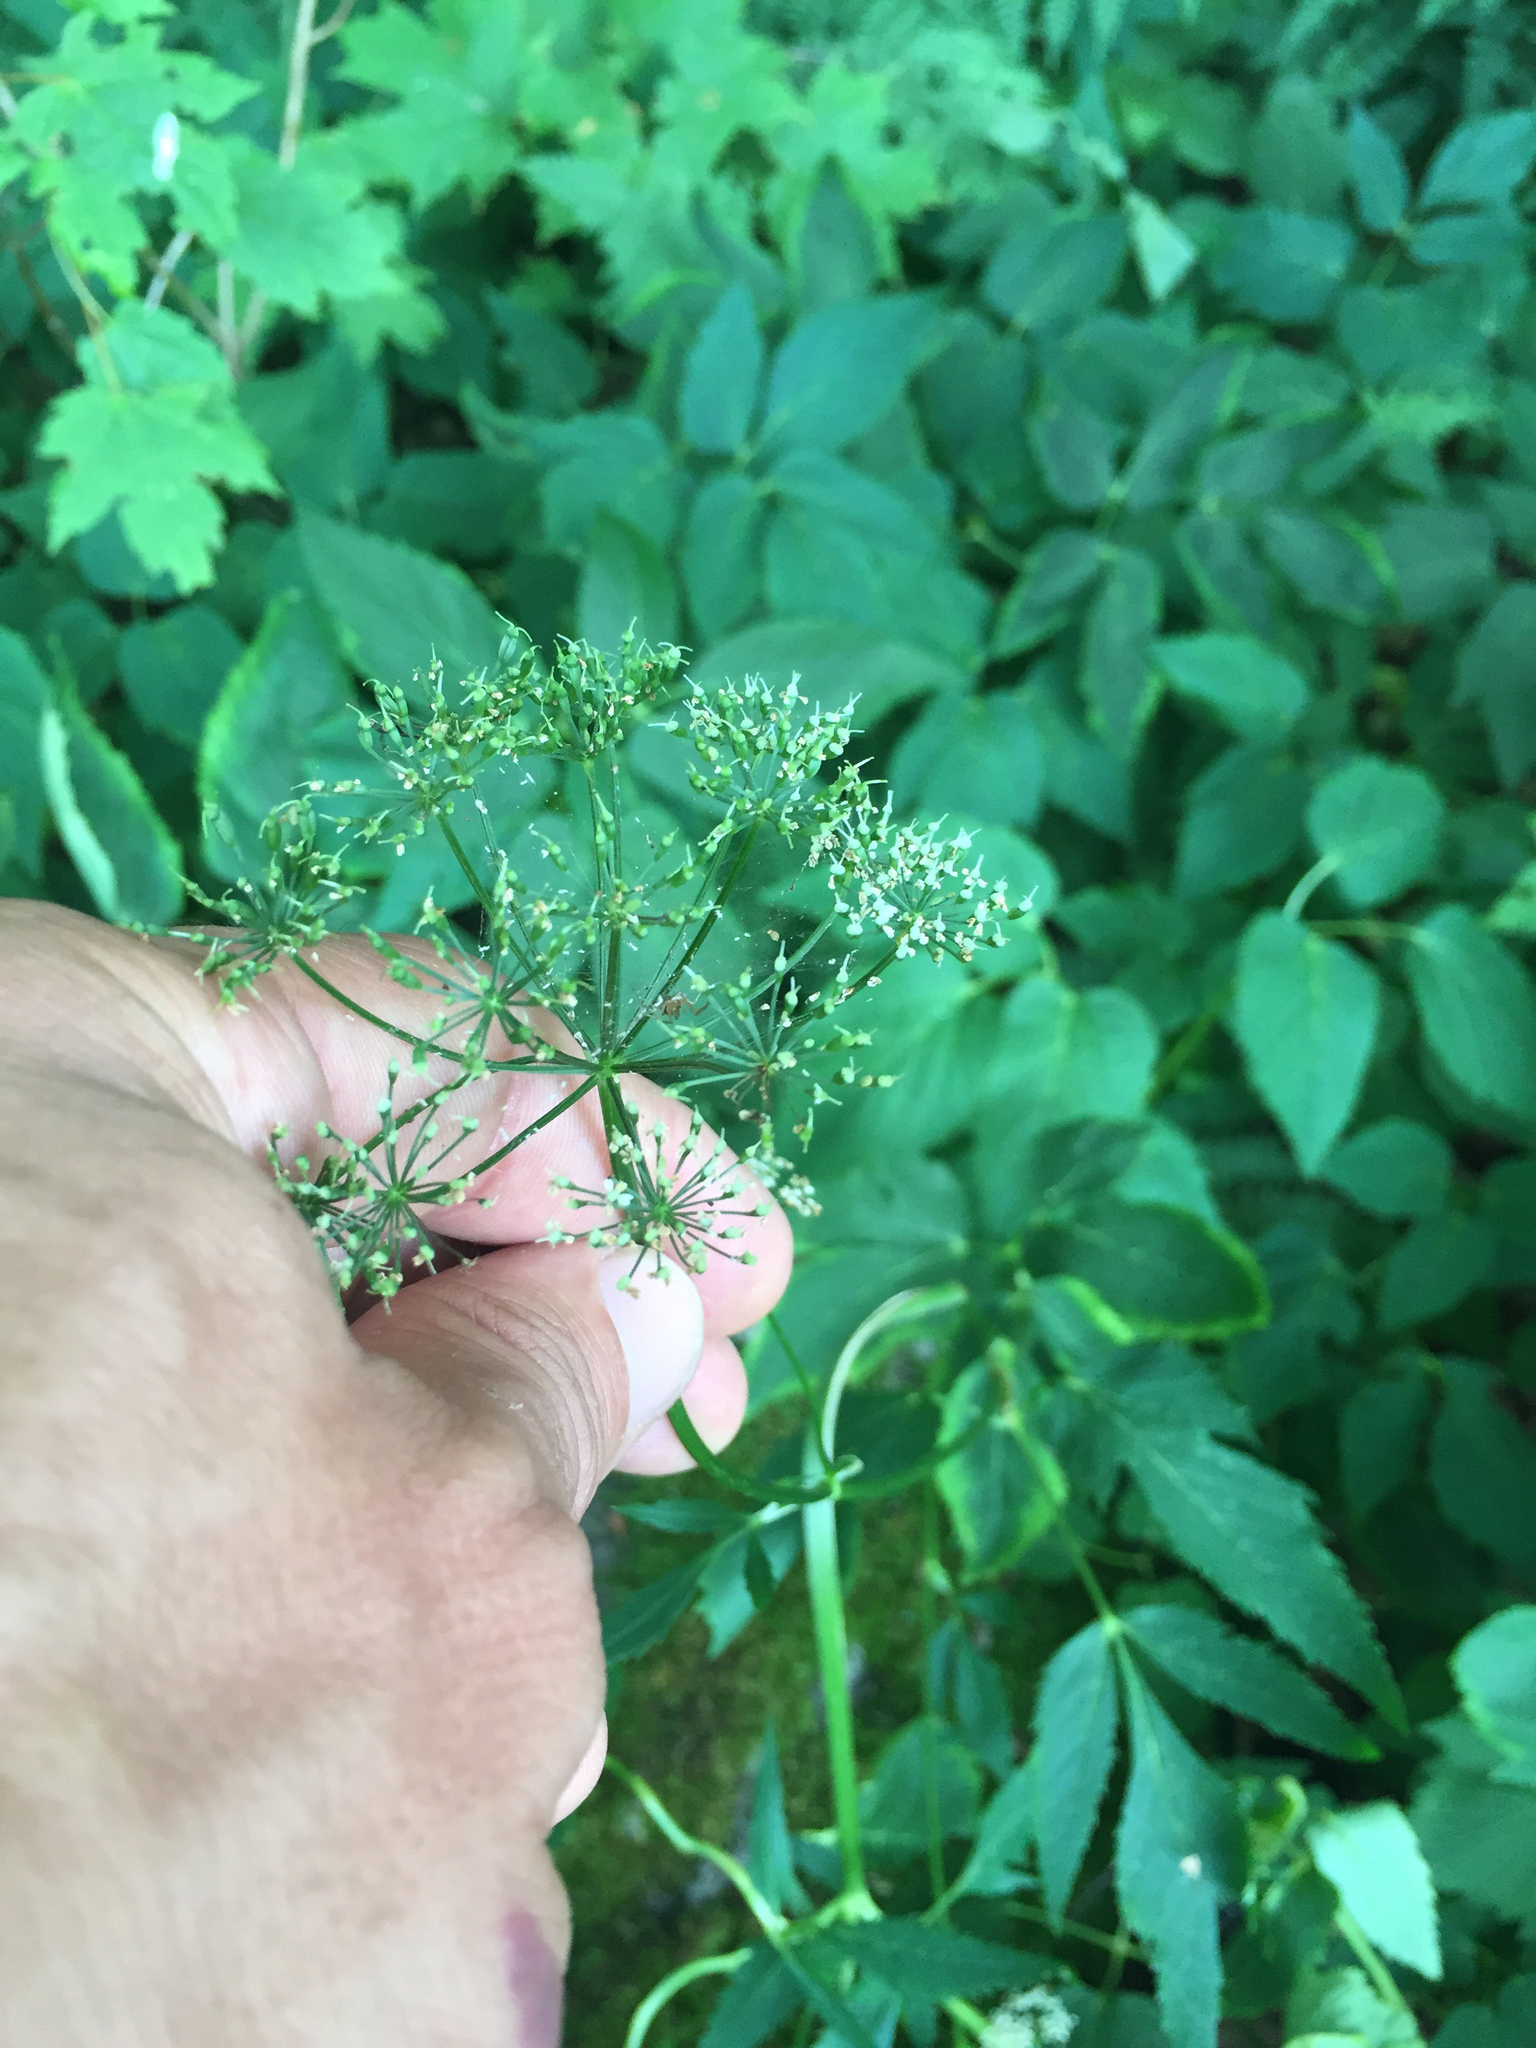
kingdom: Plantae
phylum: Tracheophyta
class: Magnoliopsida
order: Apiales
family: Apiaceae
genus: Aegopodium
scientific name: Aegopodium podagraria
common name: Ground-elder
